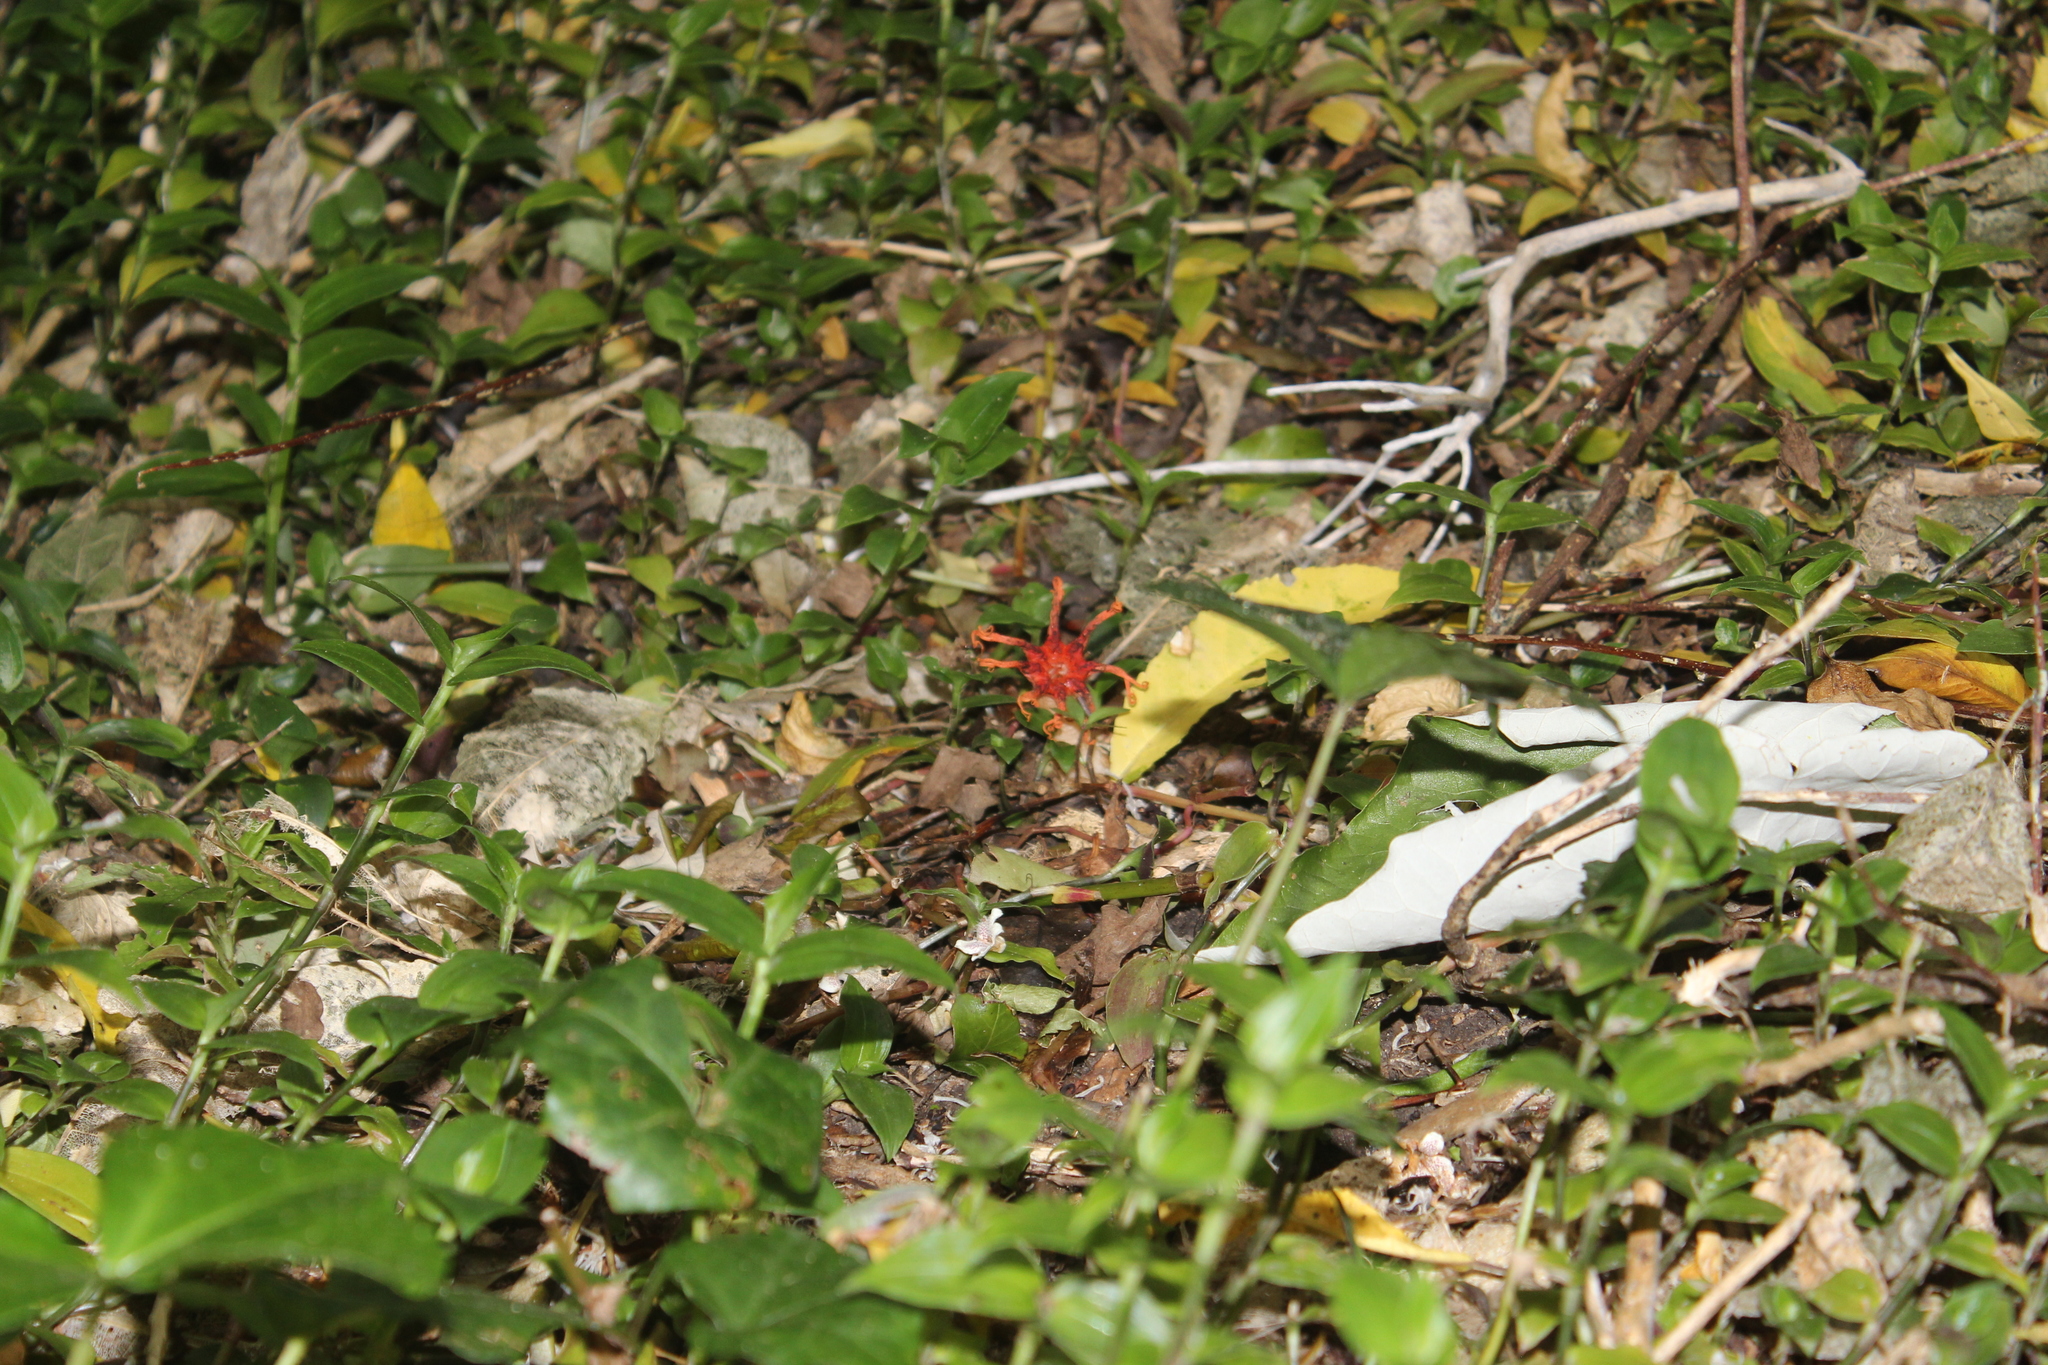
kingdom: Fungi
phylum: Basidiomycota
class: Agaricomycetes
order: Phallales
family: Phallaceae
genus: Aseroe
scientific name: Aseroe rubra
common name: Starfish fungus
